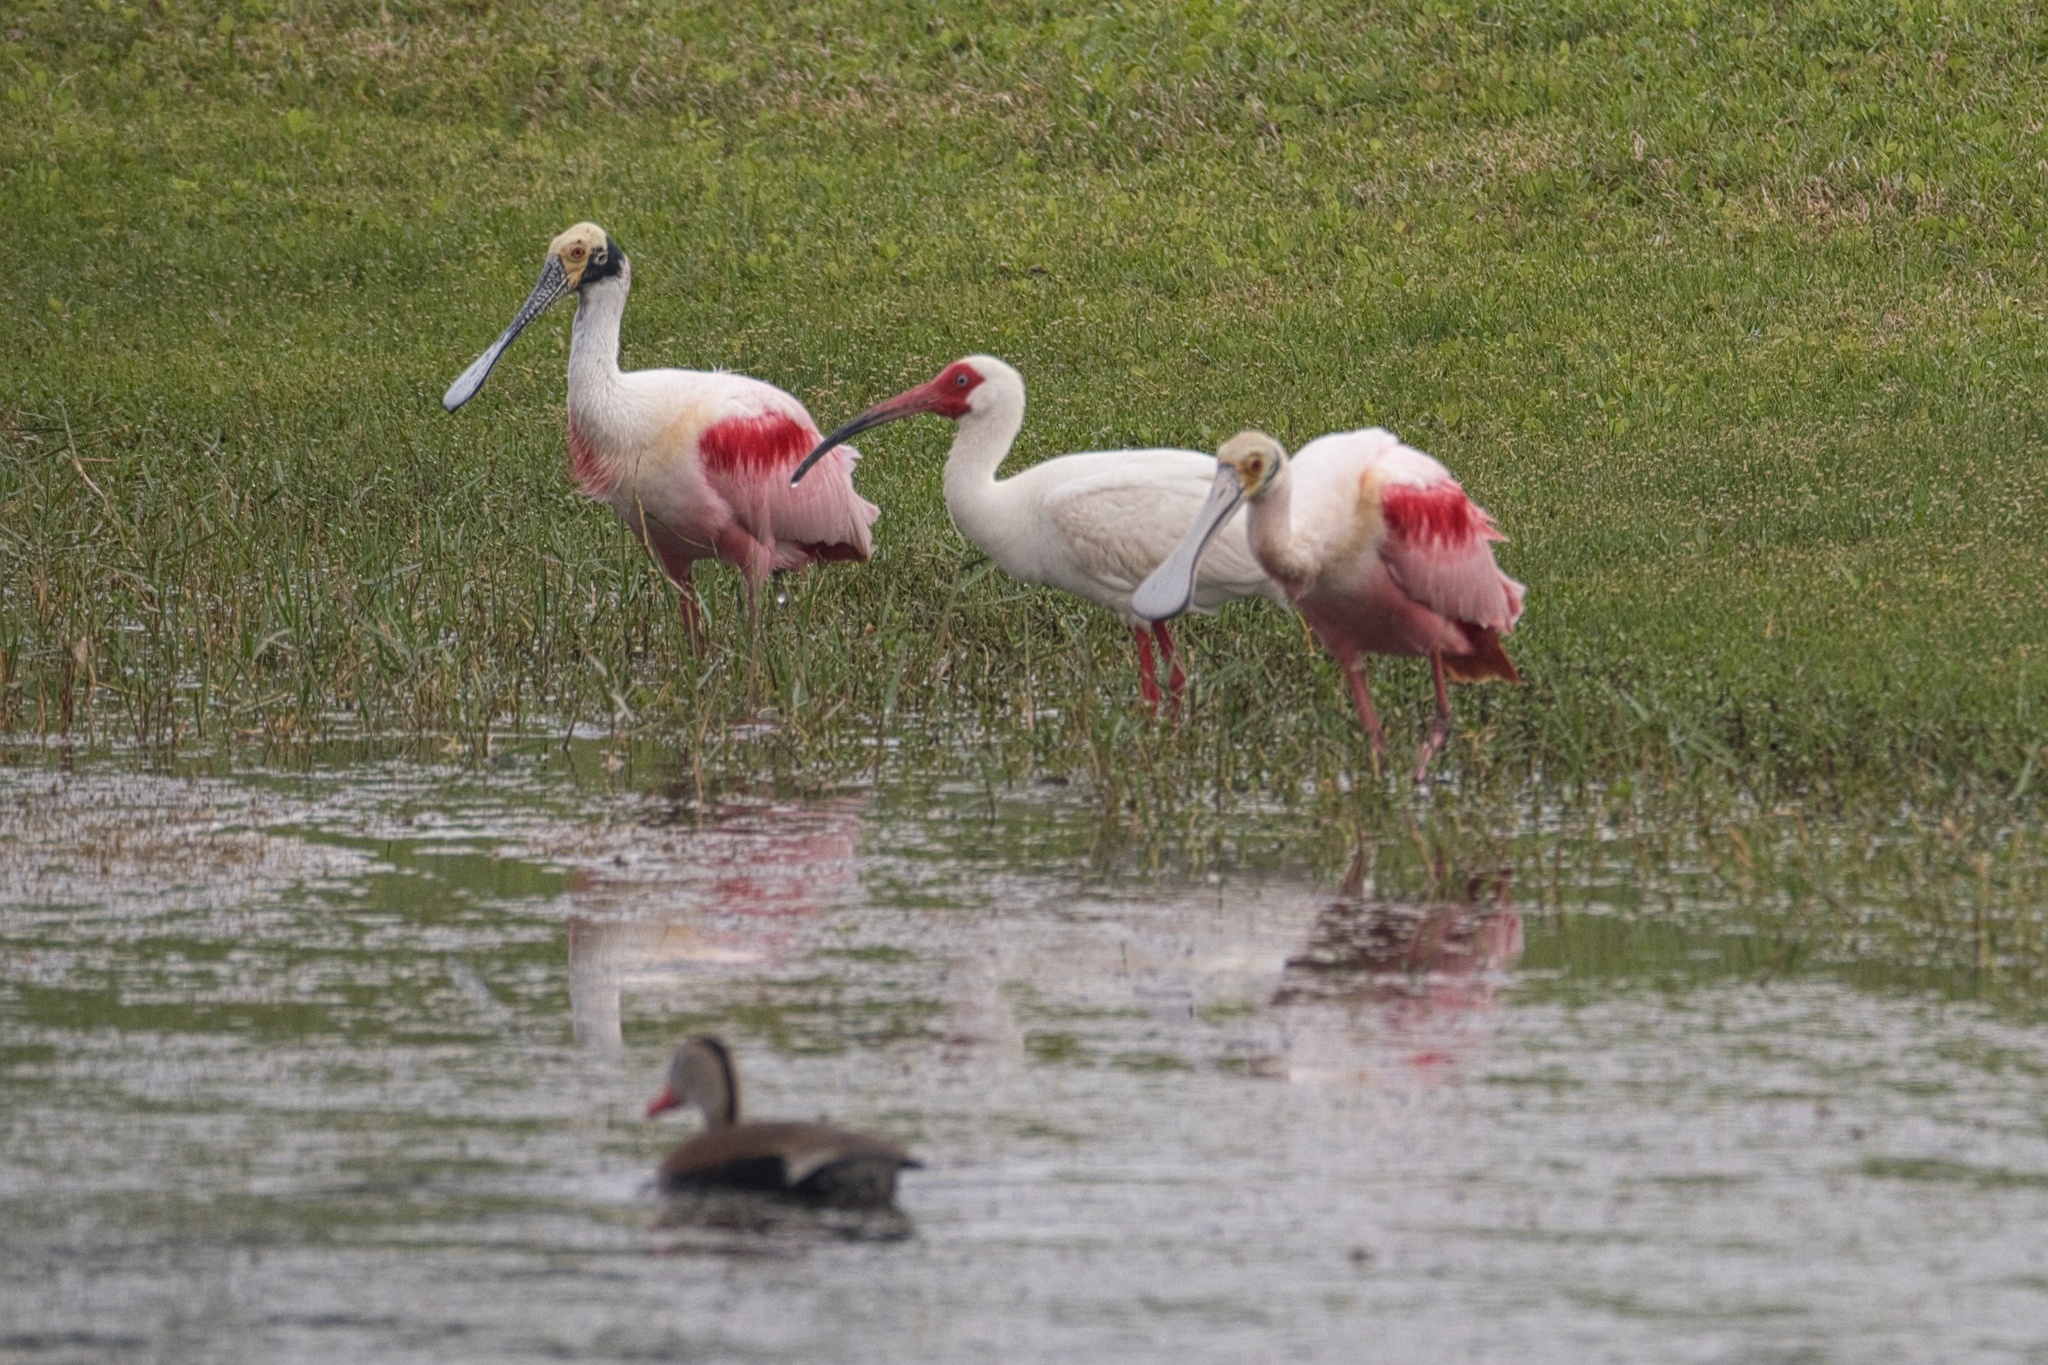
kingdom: Animalia
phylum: Chordata
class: Aves
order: Pelecaniformes
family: Threskiornithidae
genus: Eudocimus
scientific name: Eudocimus albus
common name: White ibis
